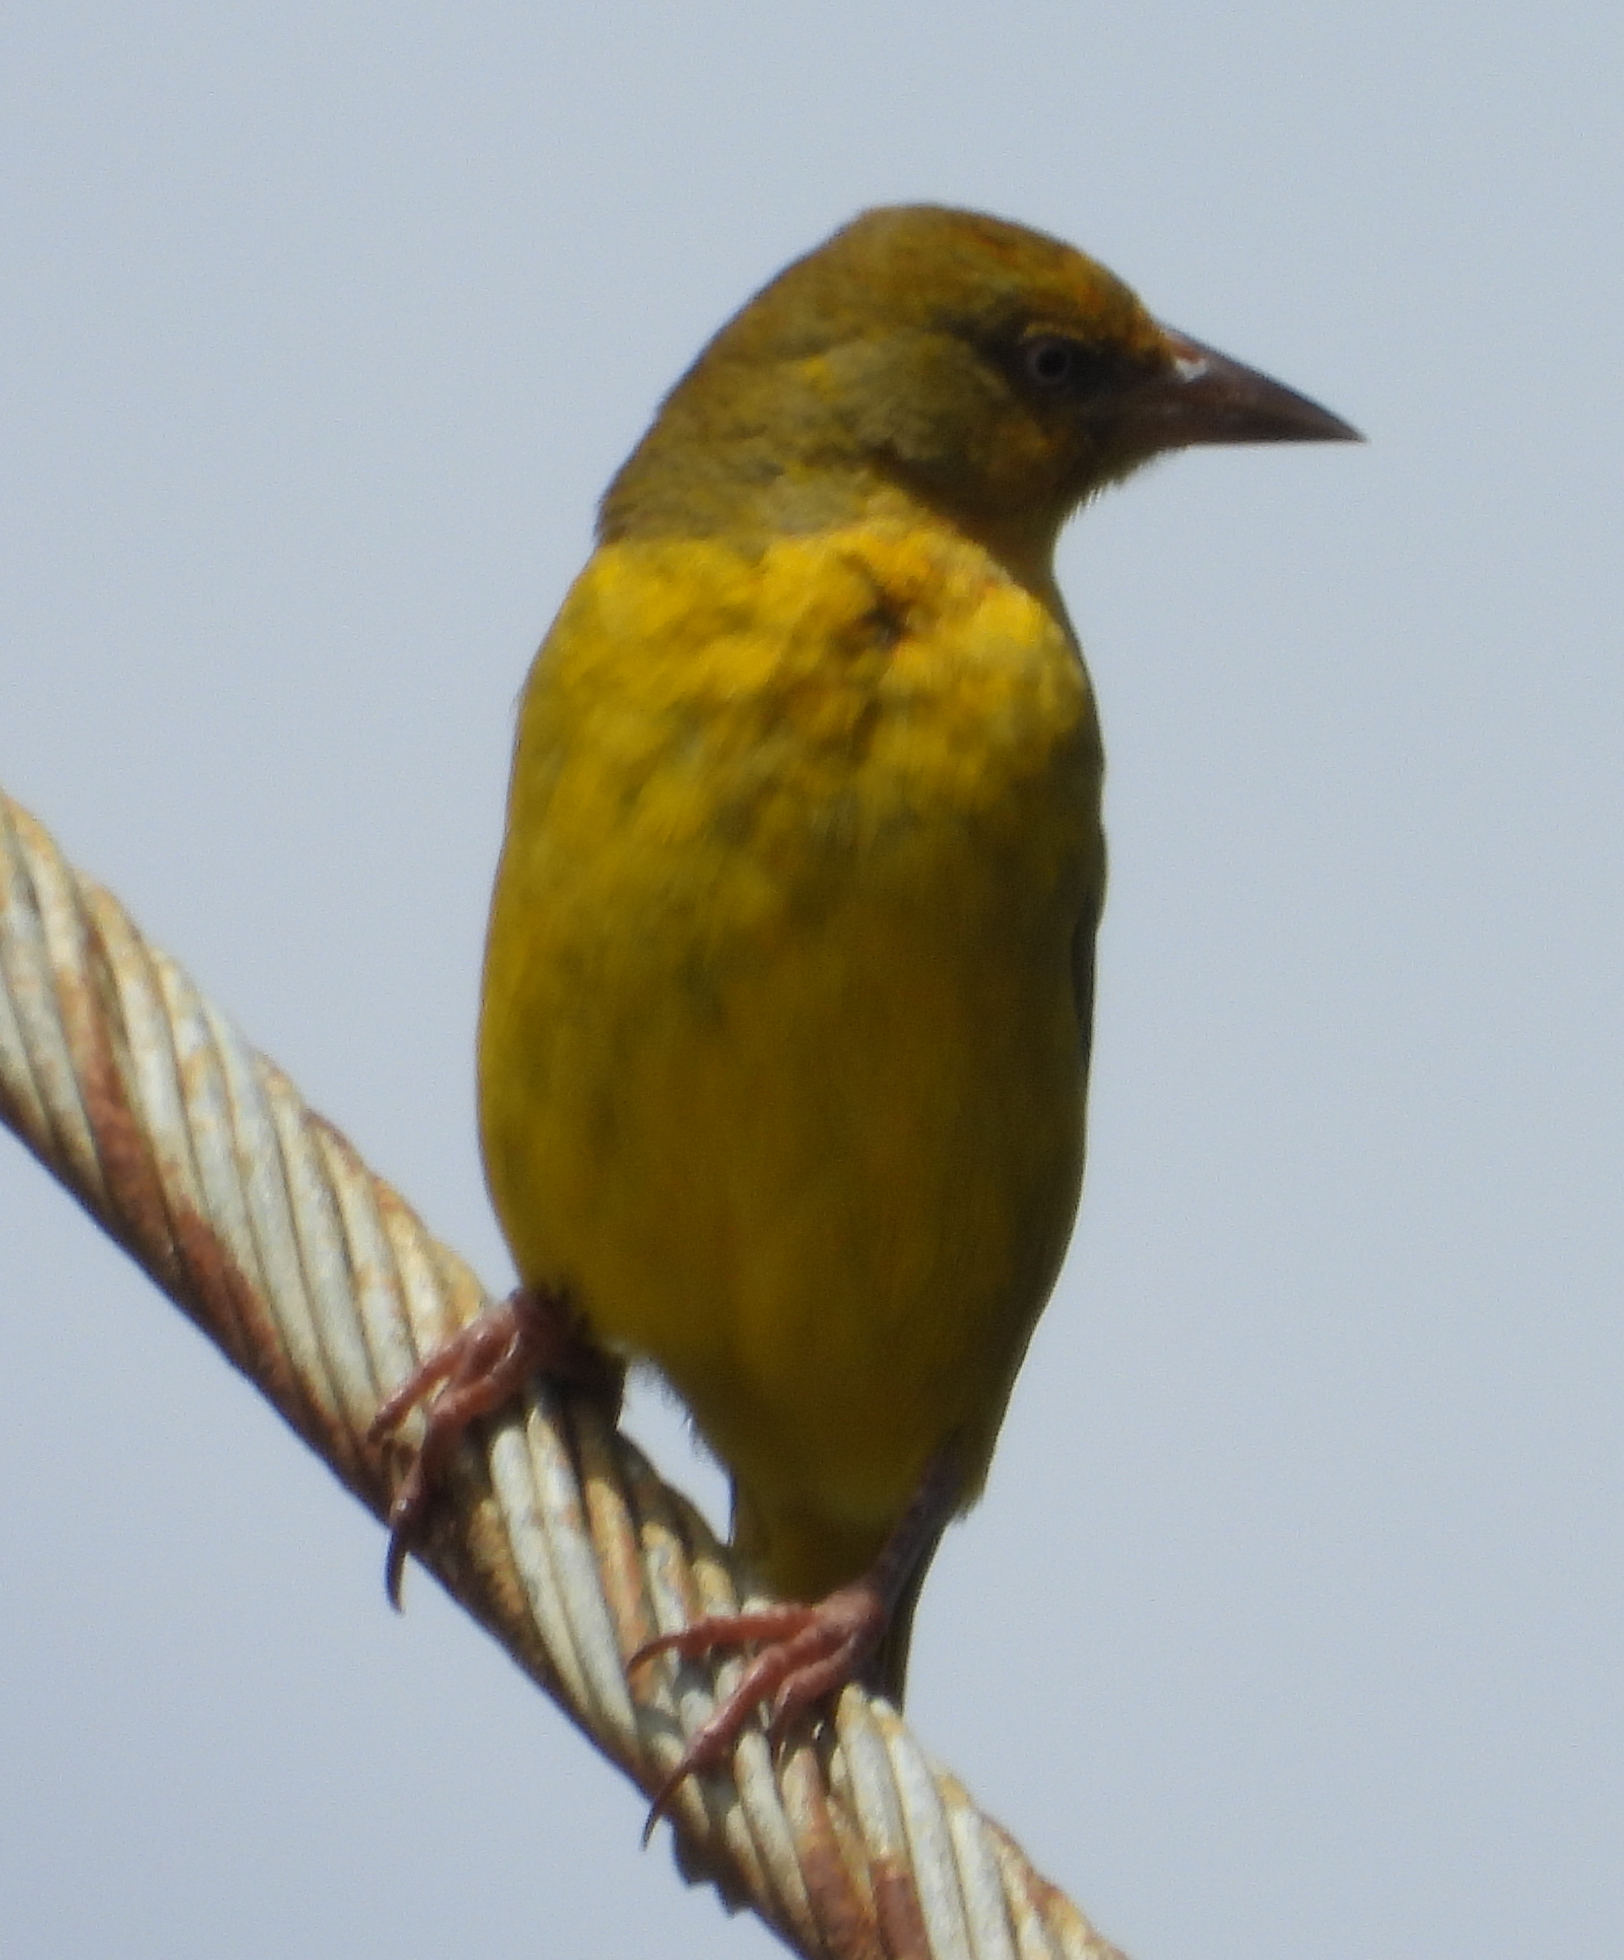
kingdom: Animalia
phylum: Chordata
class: Aves
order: Passeriformes
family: Ploceidae
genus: Ploceus
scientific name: Ploceus capensis
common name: Cape weaver
